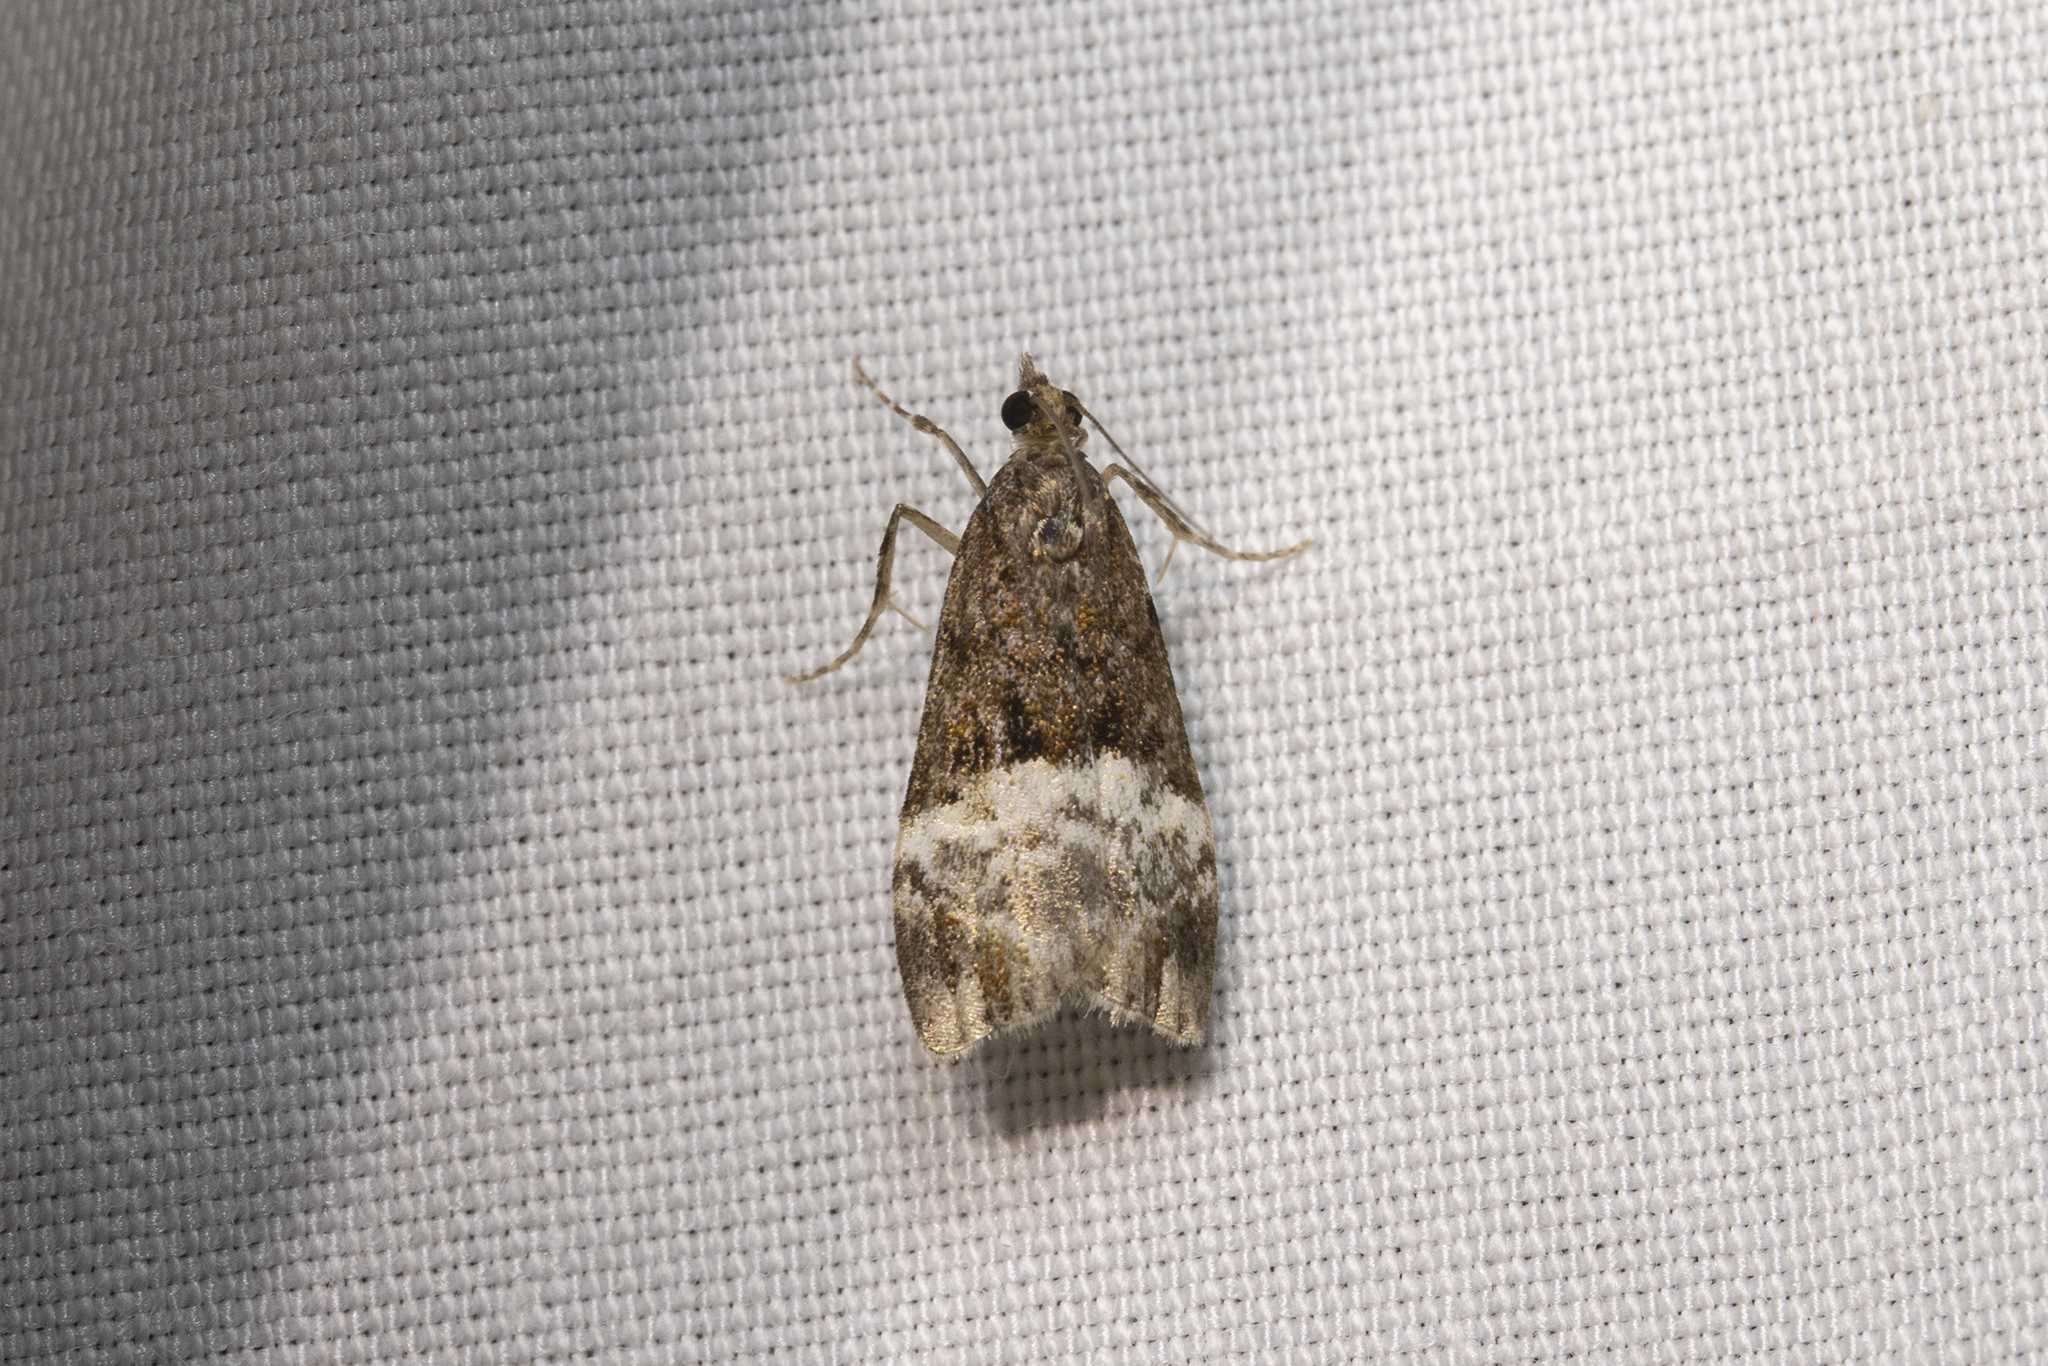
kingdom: Animalia
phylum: Arthropoda
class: Insecta
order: Lepidoptera
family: Crambidae
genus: Scoparia
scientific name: Scoparia minusculalis
